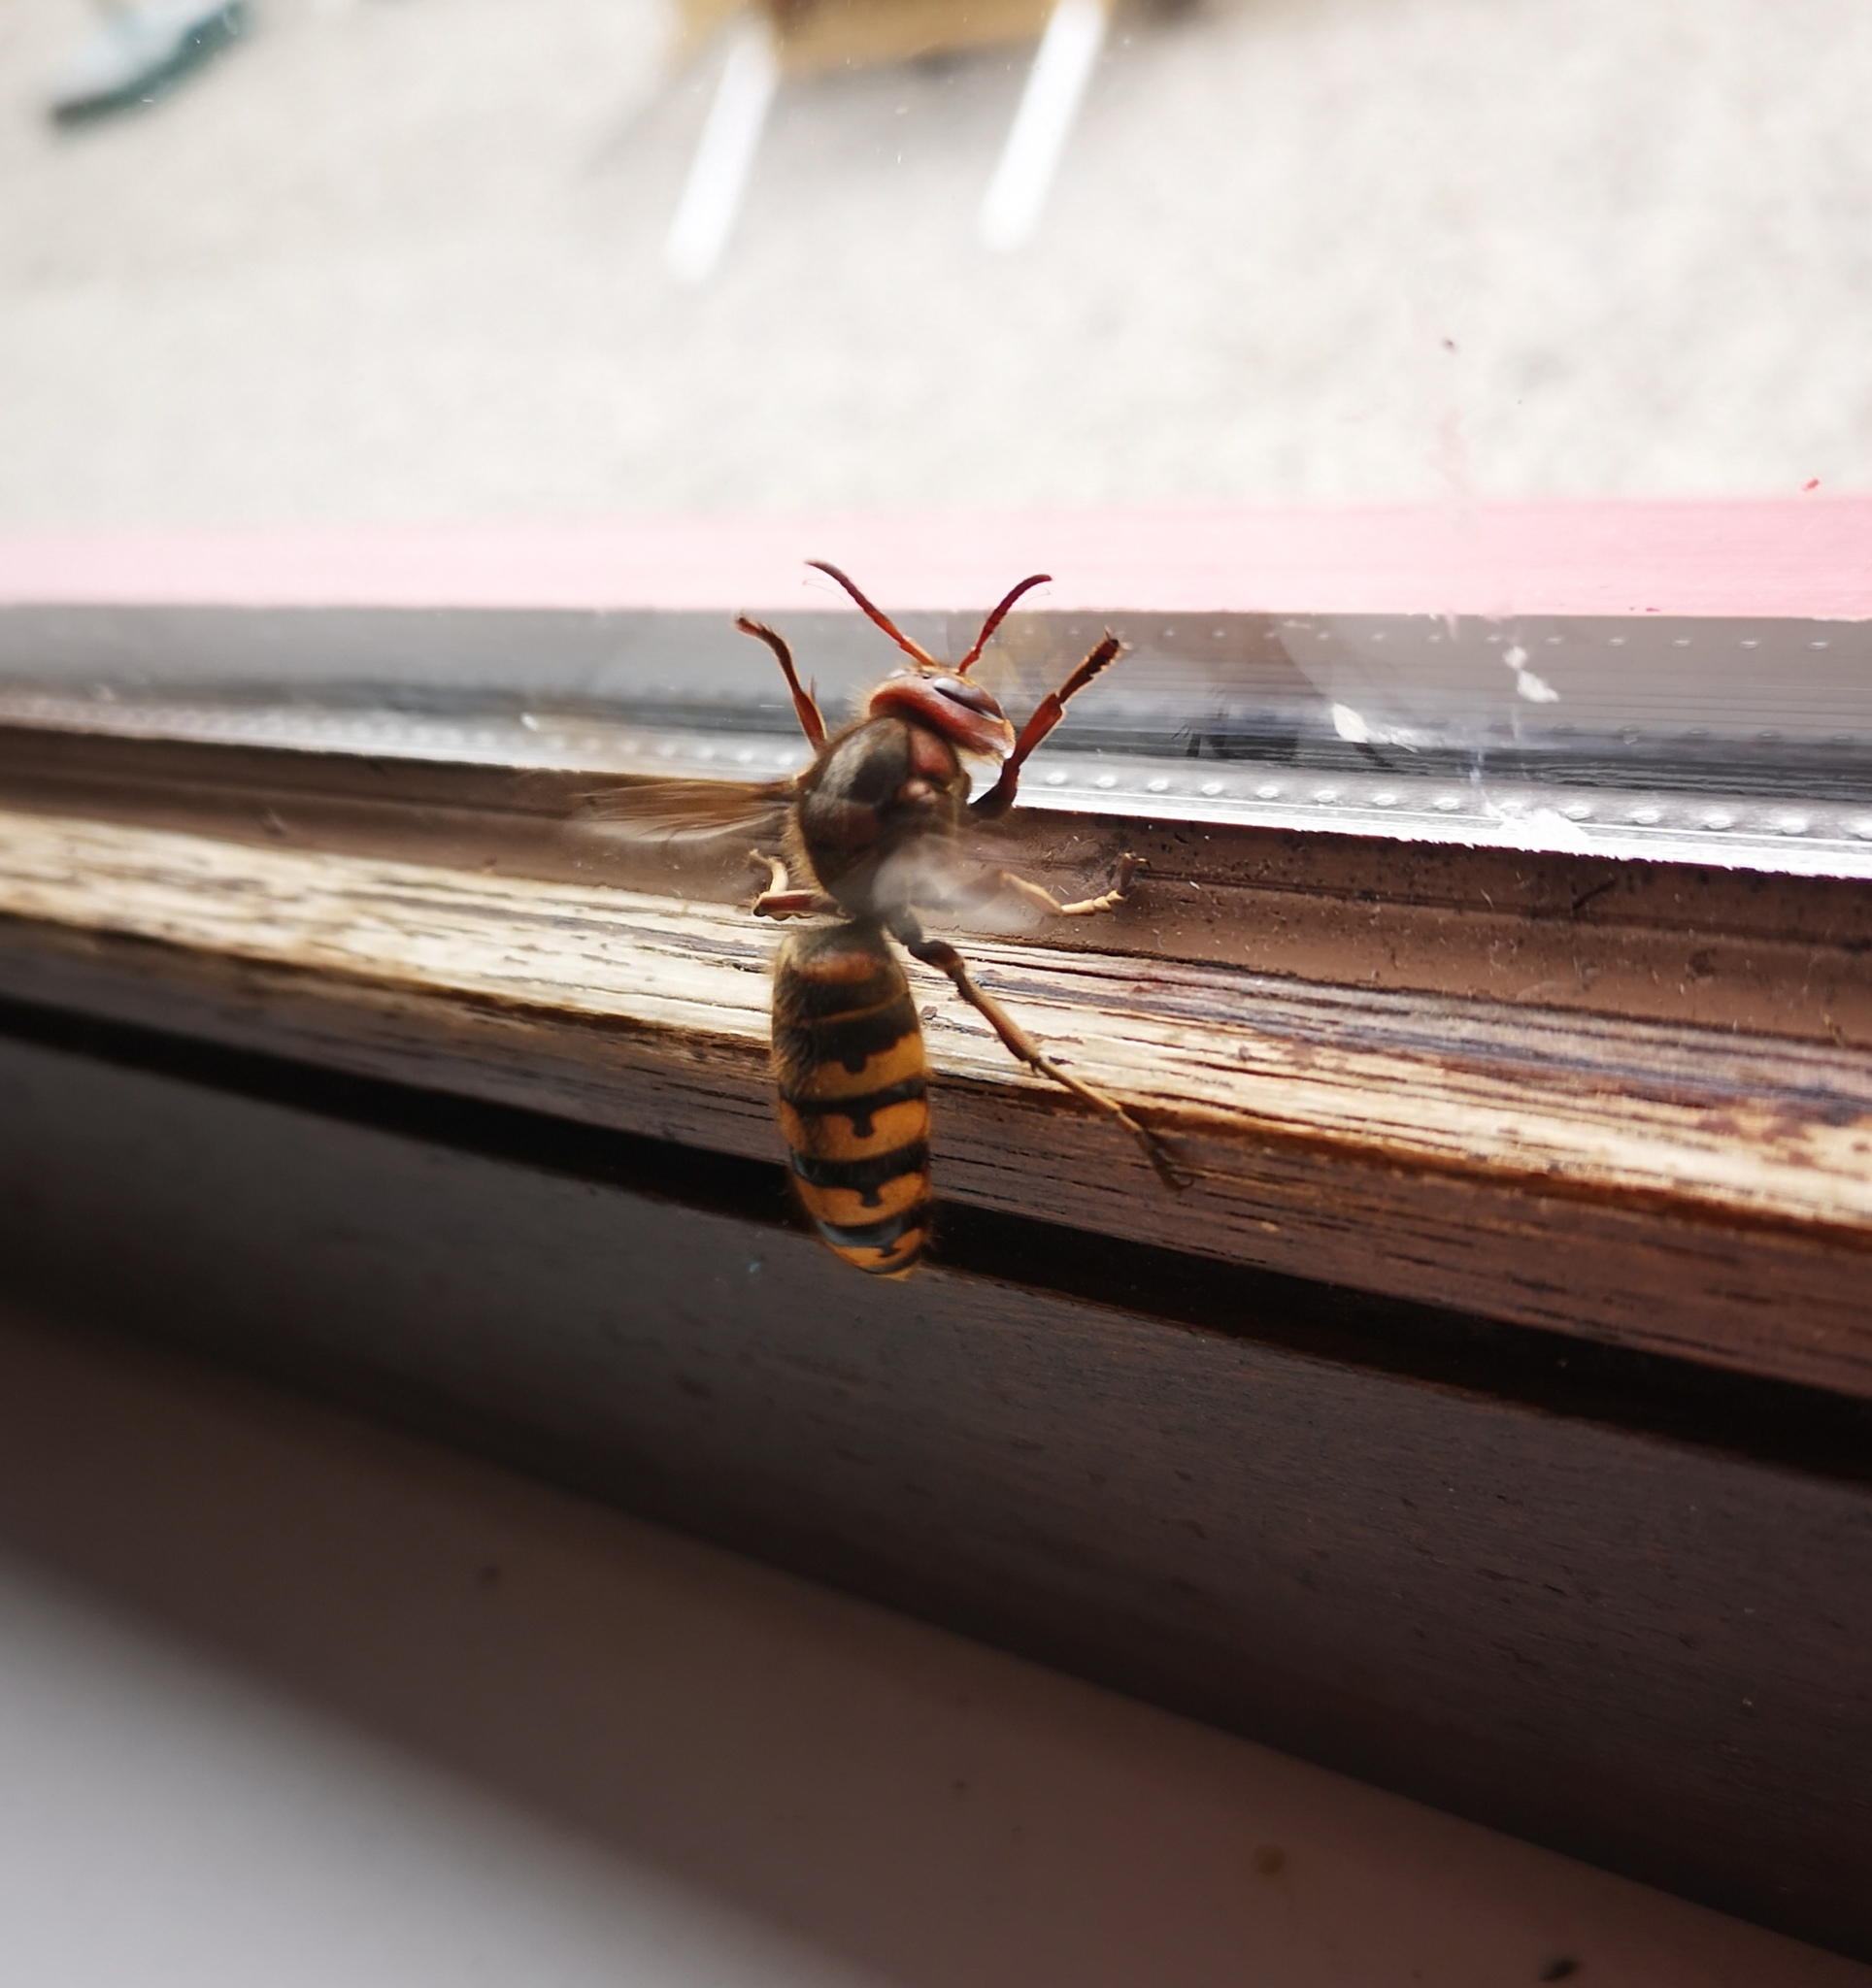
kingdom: Animalia
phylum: Arthropoda
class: Insecta
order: Hymenoptera
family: Vespidae
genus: Vespa
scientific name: Vespa crabro
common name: Hornet
